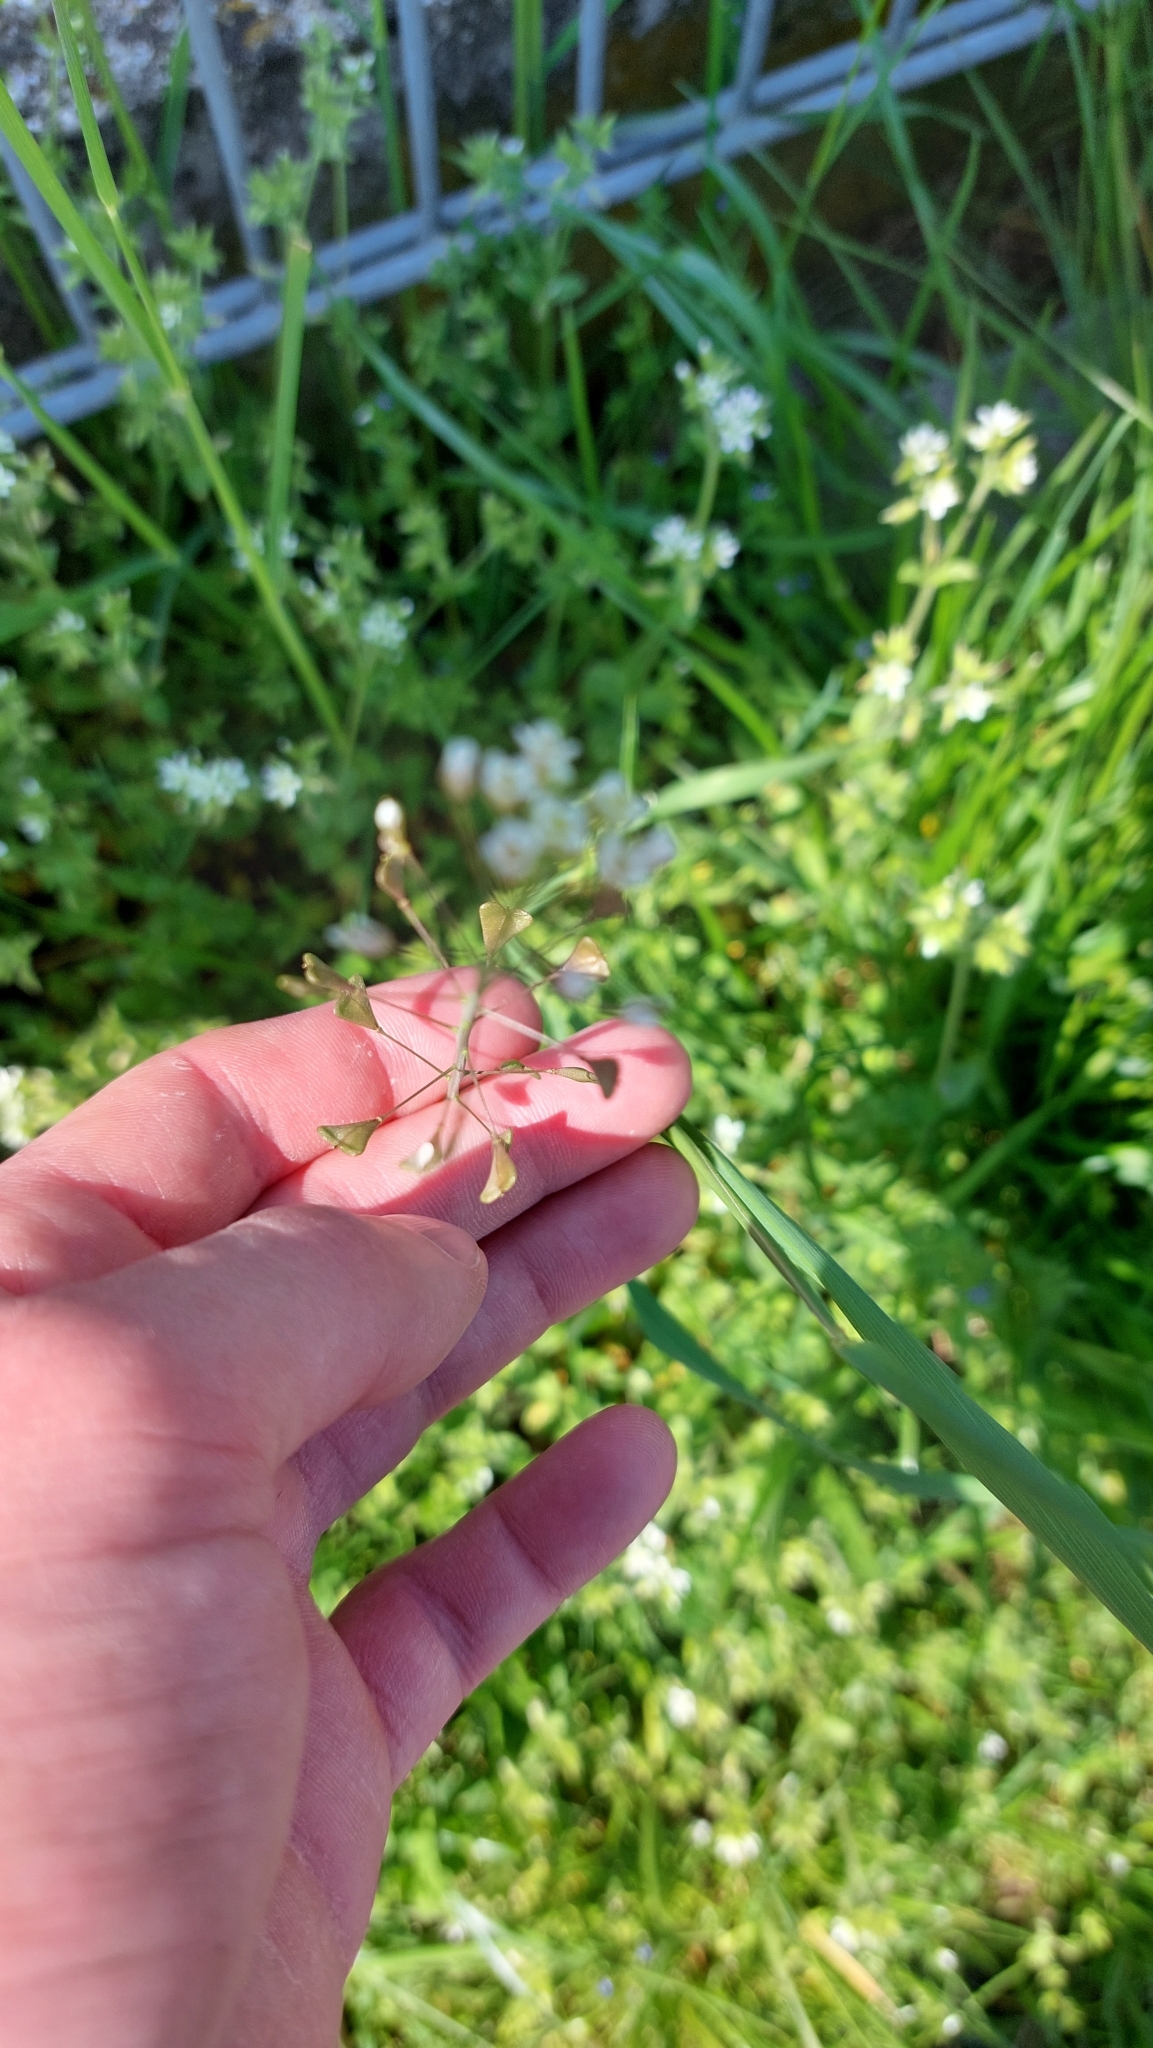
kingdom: Plantae
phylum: Tracheophyta
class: Magnoliopsida
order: Brassicales
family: Brassicaceae
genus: Capsella
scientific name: Capsella bursa-pastoris
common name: Shepherd's purse
